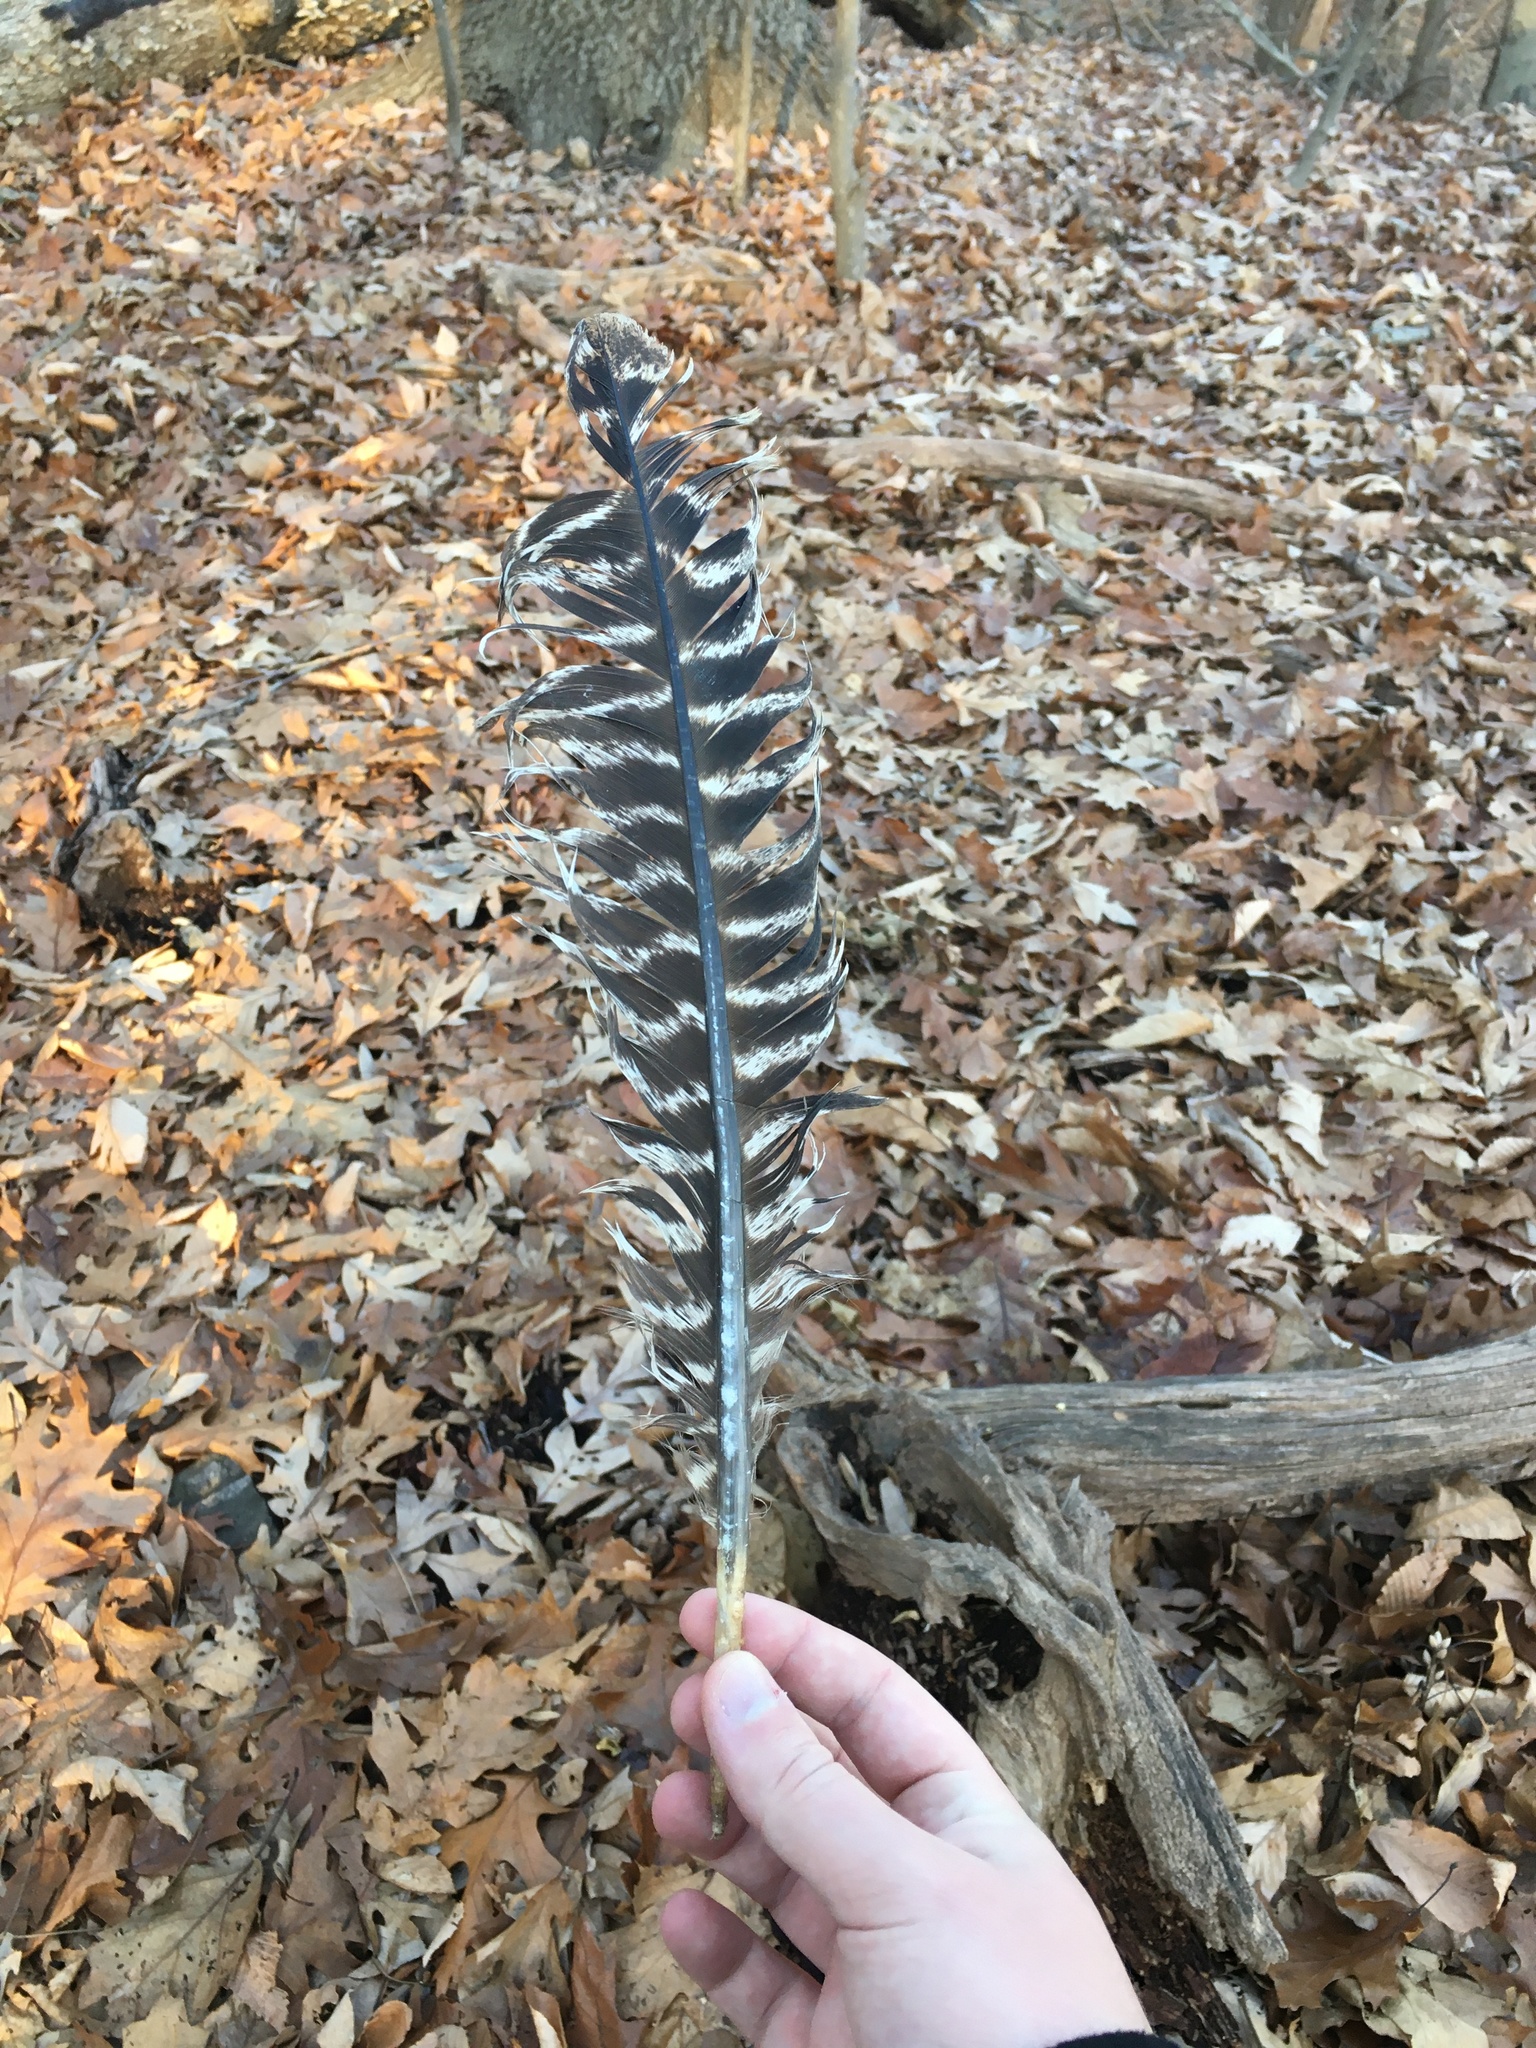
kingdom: Animalia
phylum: Chordata
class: Aves
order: Galliformes
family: Phasianidae
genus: Meleagris
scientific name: Meleagris gallopavo
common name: Wild turkey
